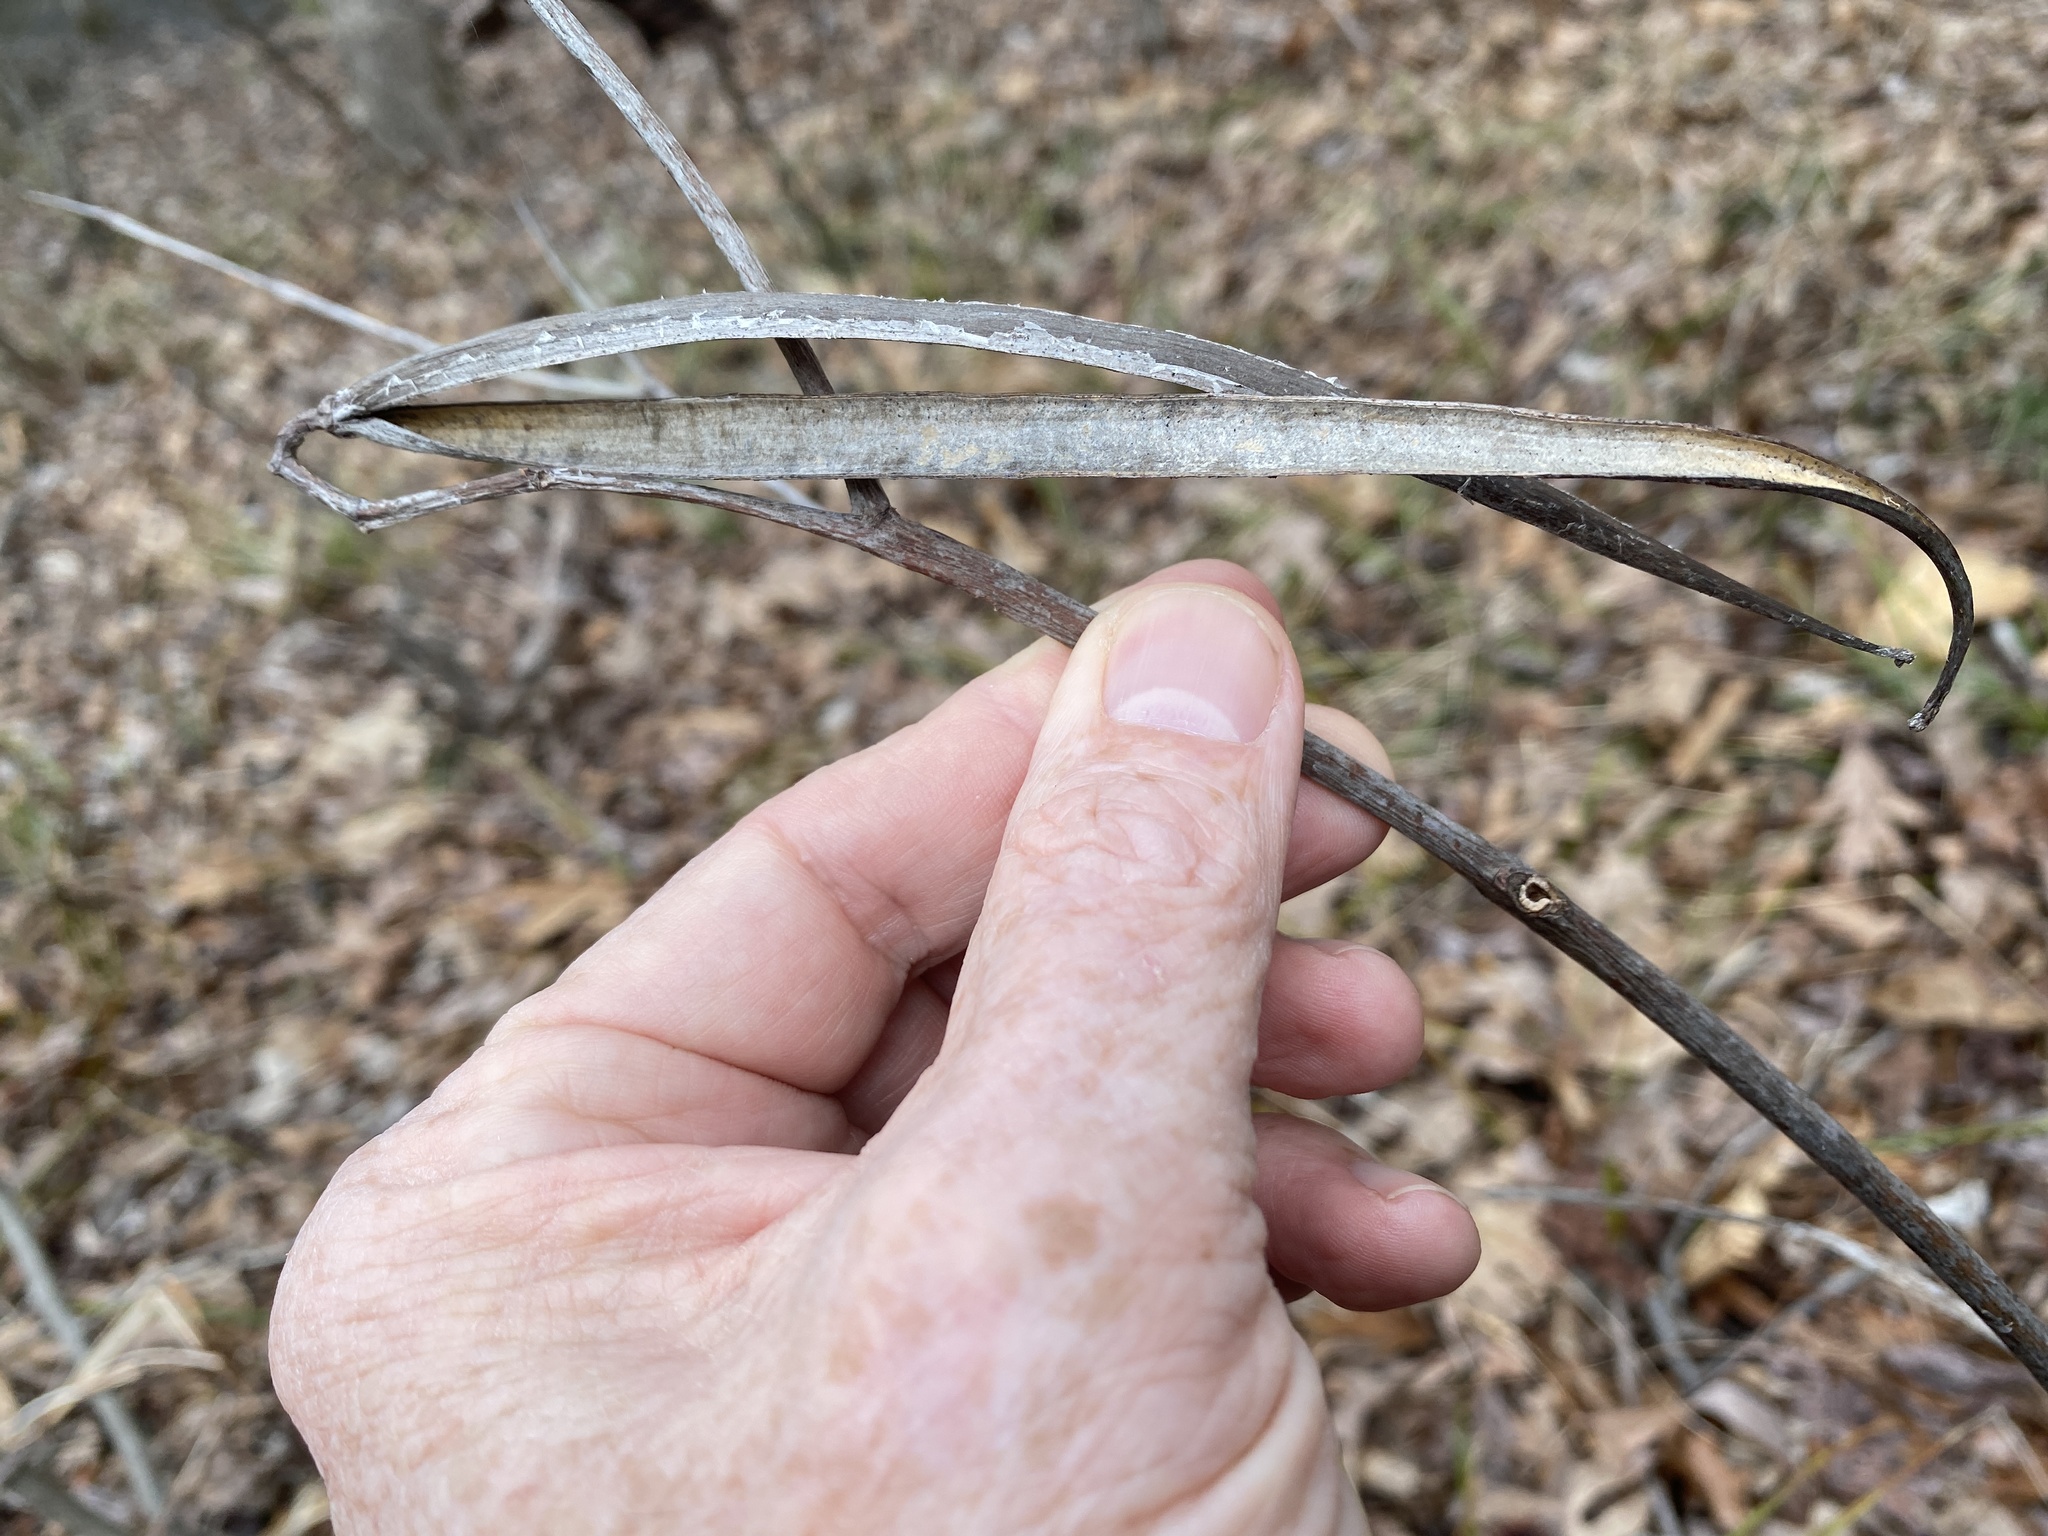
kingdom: Plantae
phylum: Tracheophyta
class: Magnoliopsida
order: Gentianales
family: Apocynaceae
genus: Apocynum
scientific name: Apocynum cannabinum
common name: Hemp dogbane
